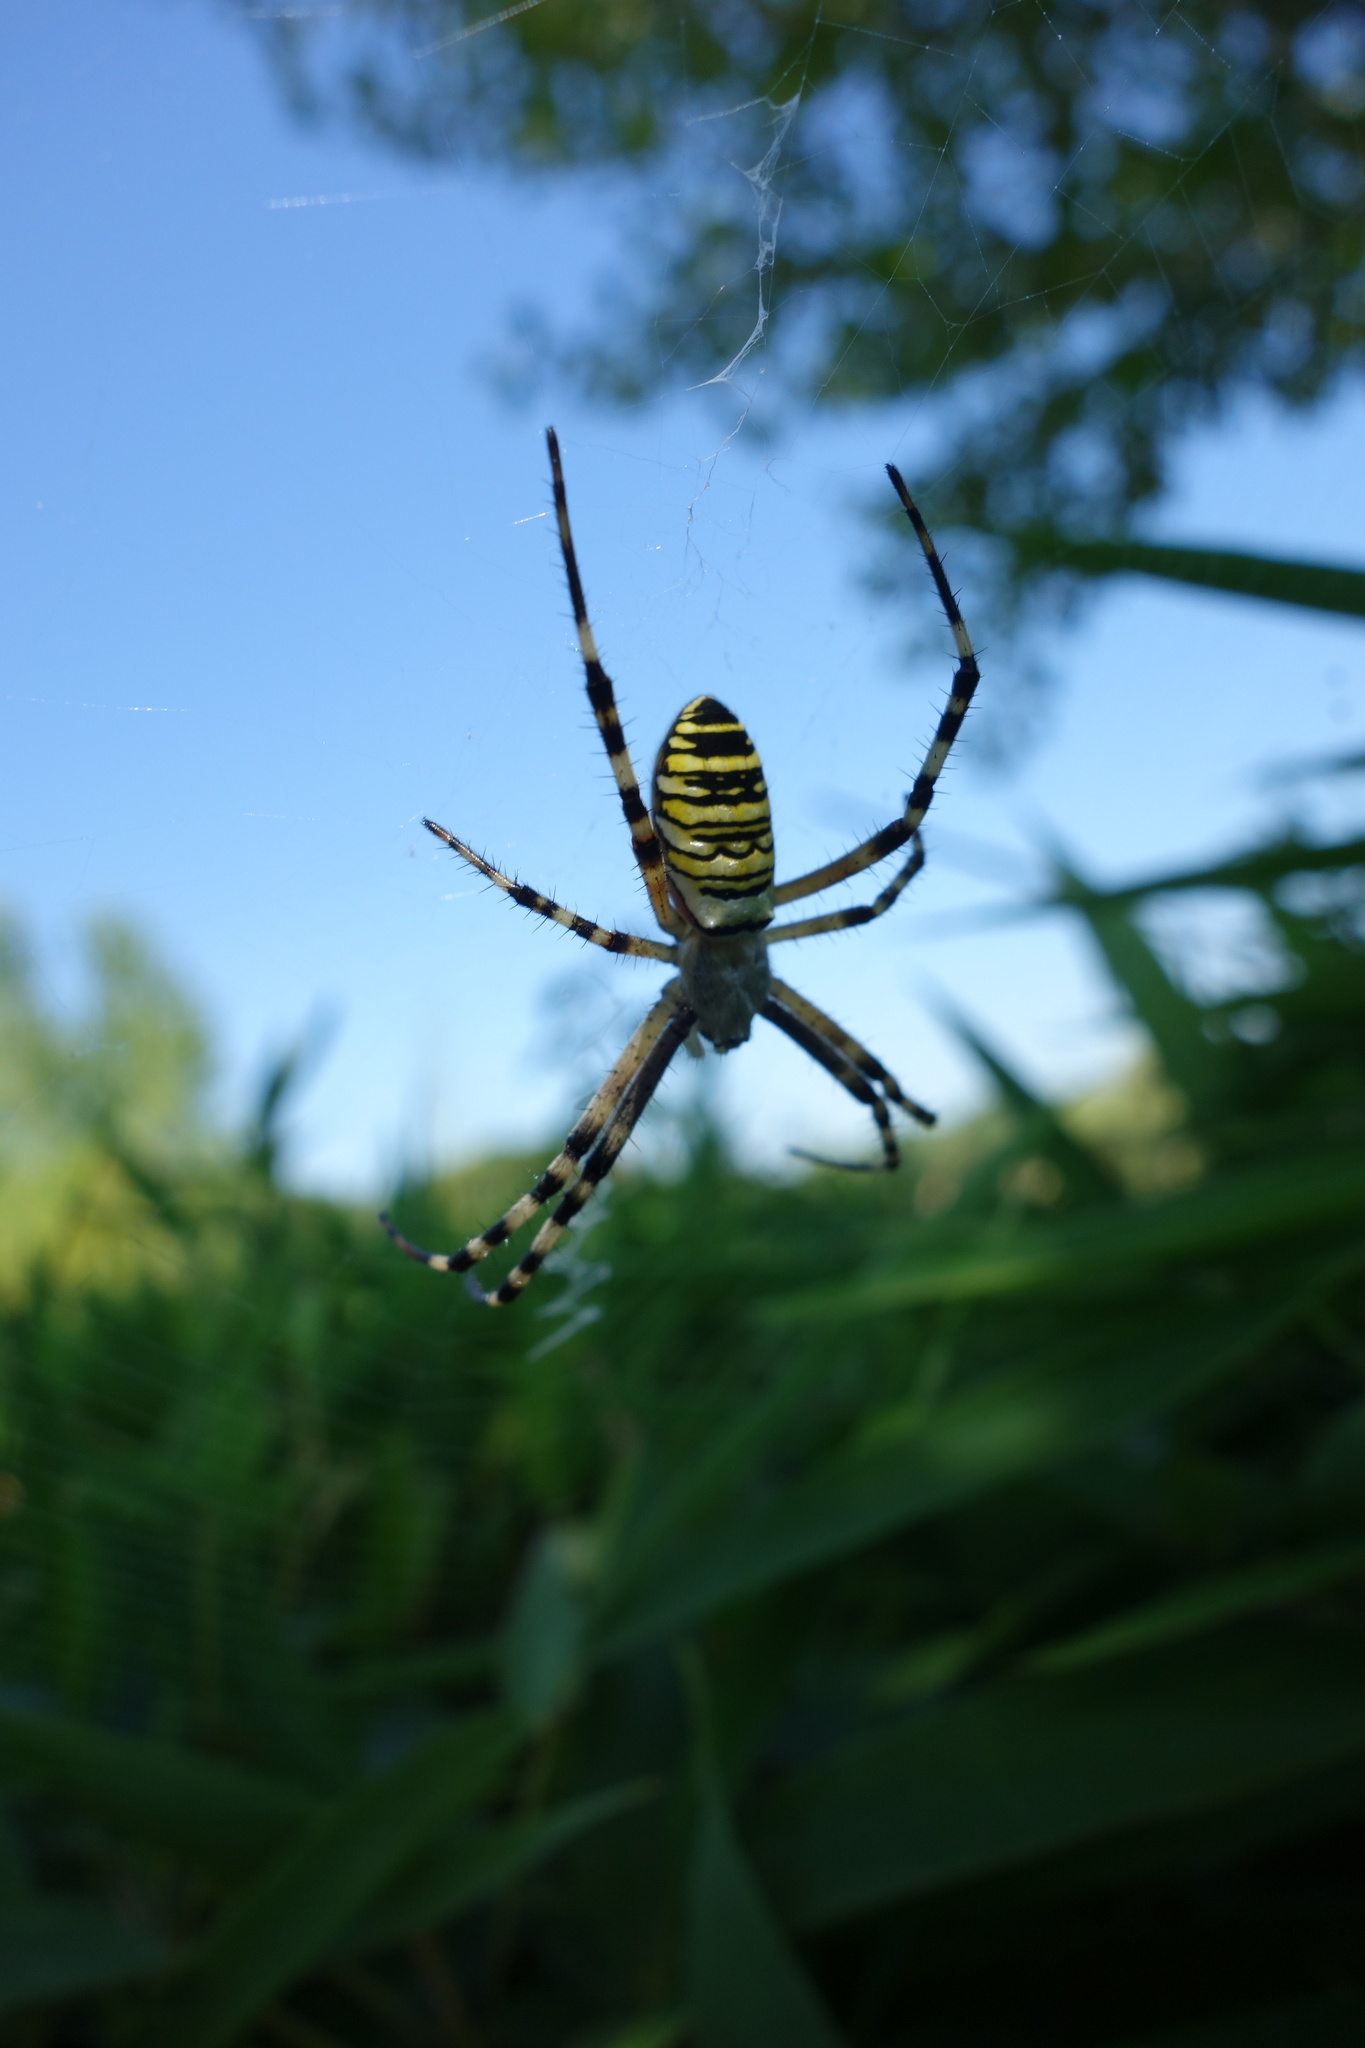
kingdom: Animalia
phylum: Arthropoda
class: Arachnida
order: Araneae
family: Araneidae
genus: Argiope
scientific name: Argiope bruennichi
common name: Wasp spider
